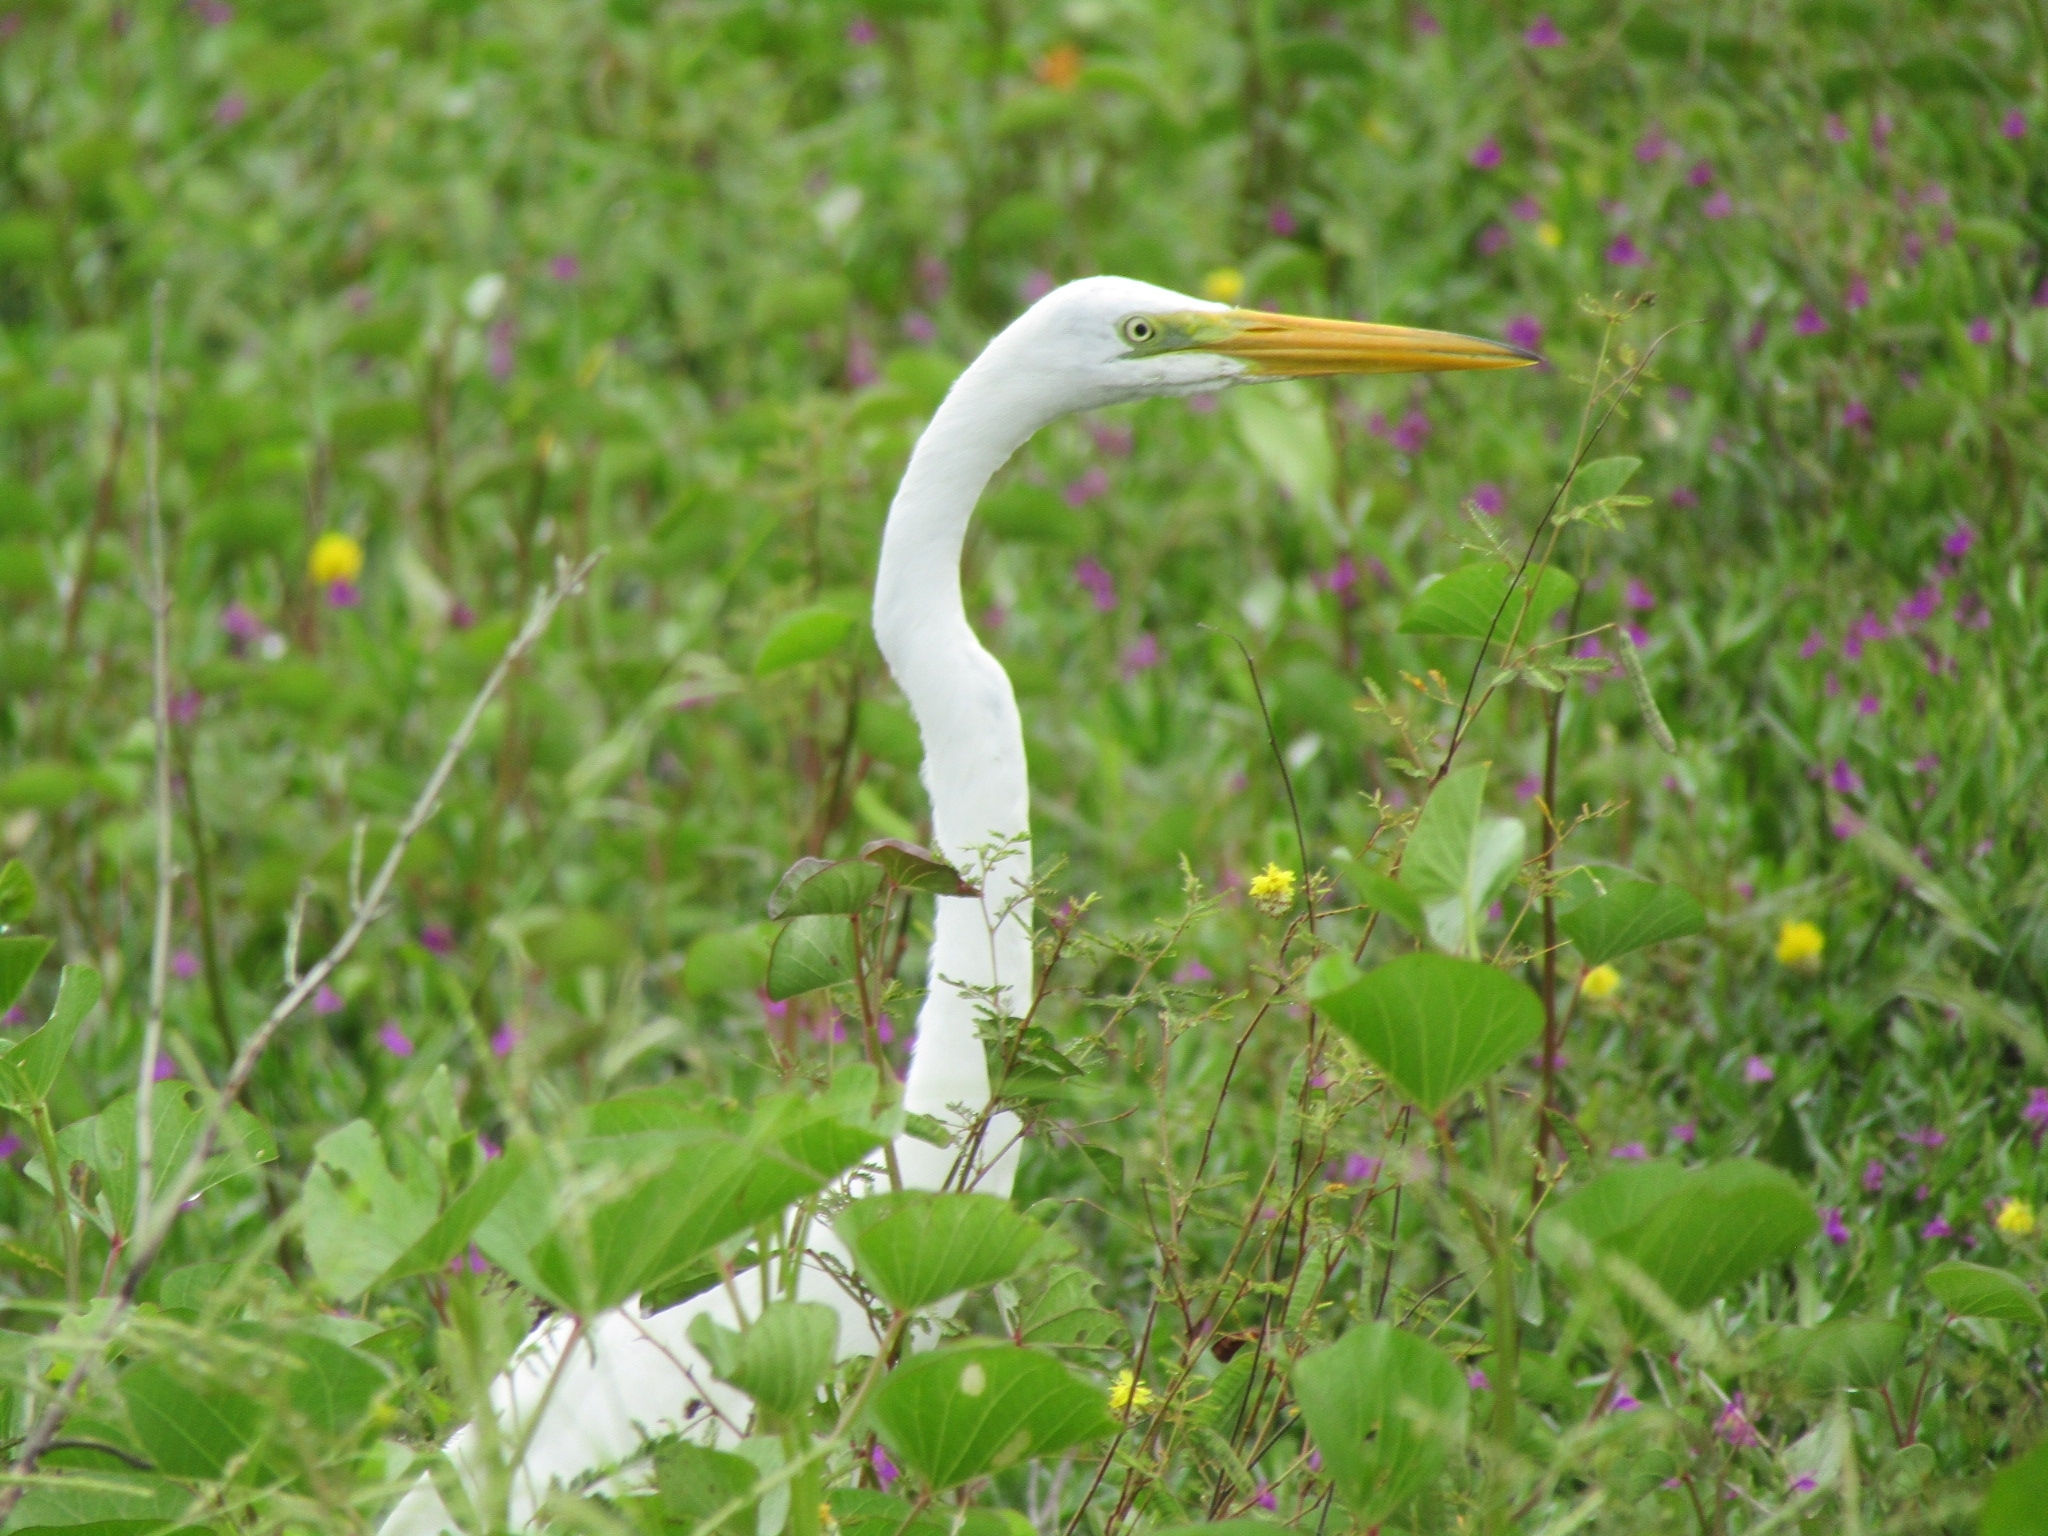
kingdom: Animalia
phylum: Chordata
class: Aves
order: Pelecaniformes
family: Ardeidae
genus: Ardea
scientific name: Ardea alba
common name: Great egret
